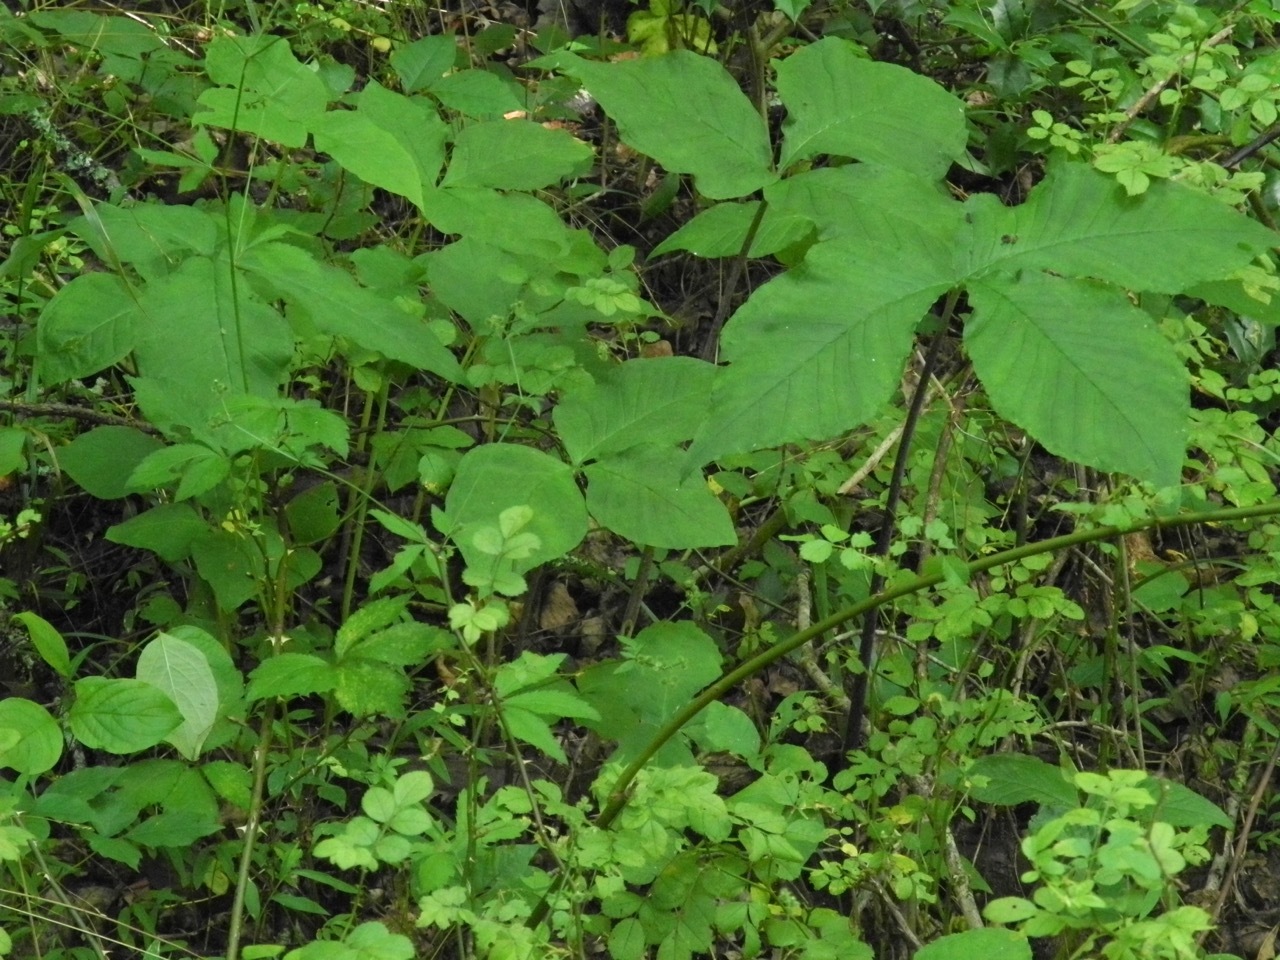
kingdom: Plantae
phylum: Tracheophyta
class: Liliopsida
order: Alismatales
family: Araceae
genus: Arisaema
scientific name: Arisaema triphyllum
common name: Jack-in-the-pulpit
